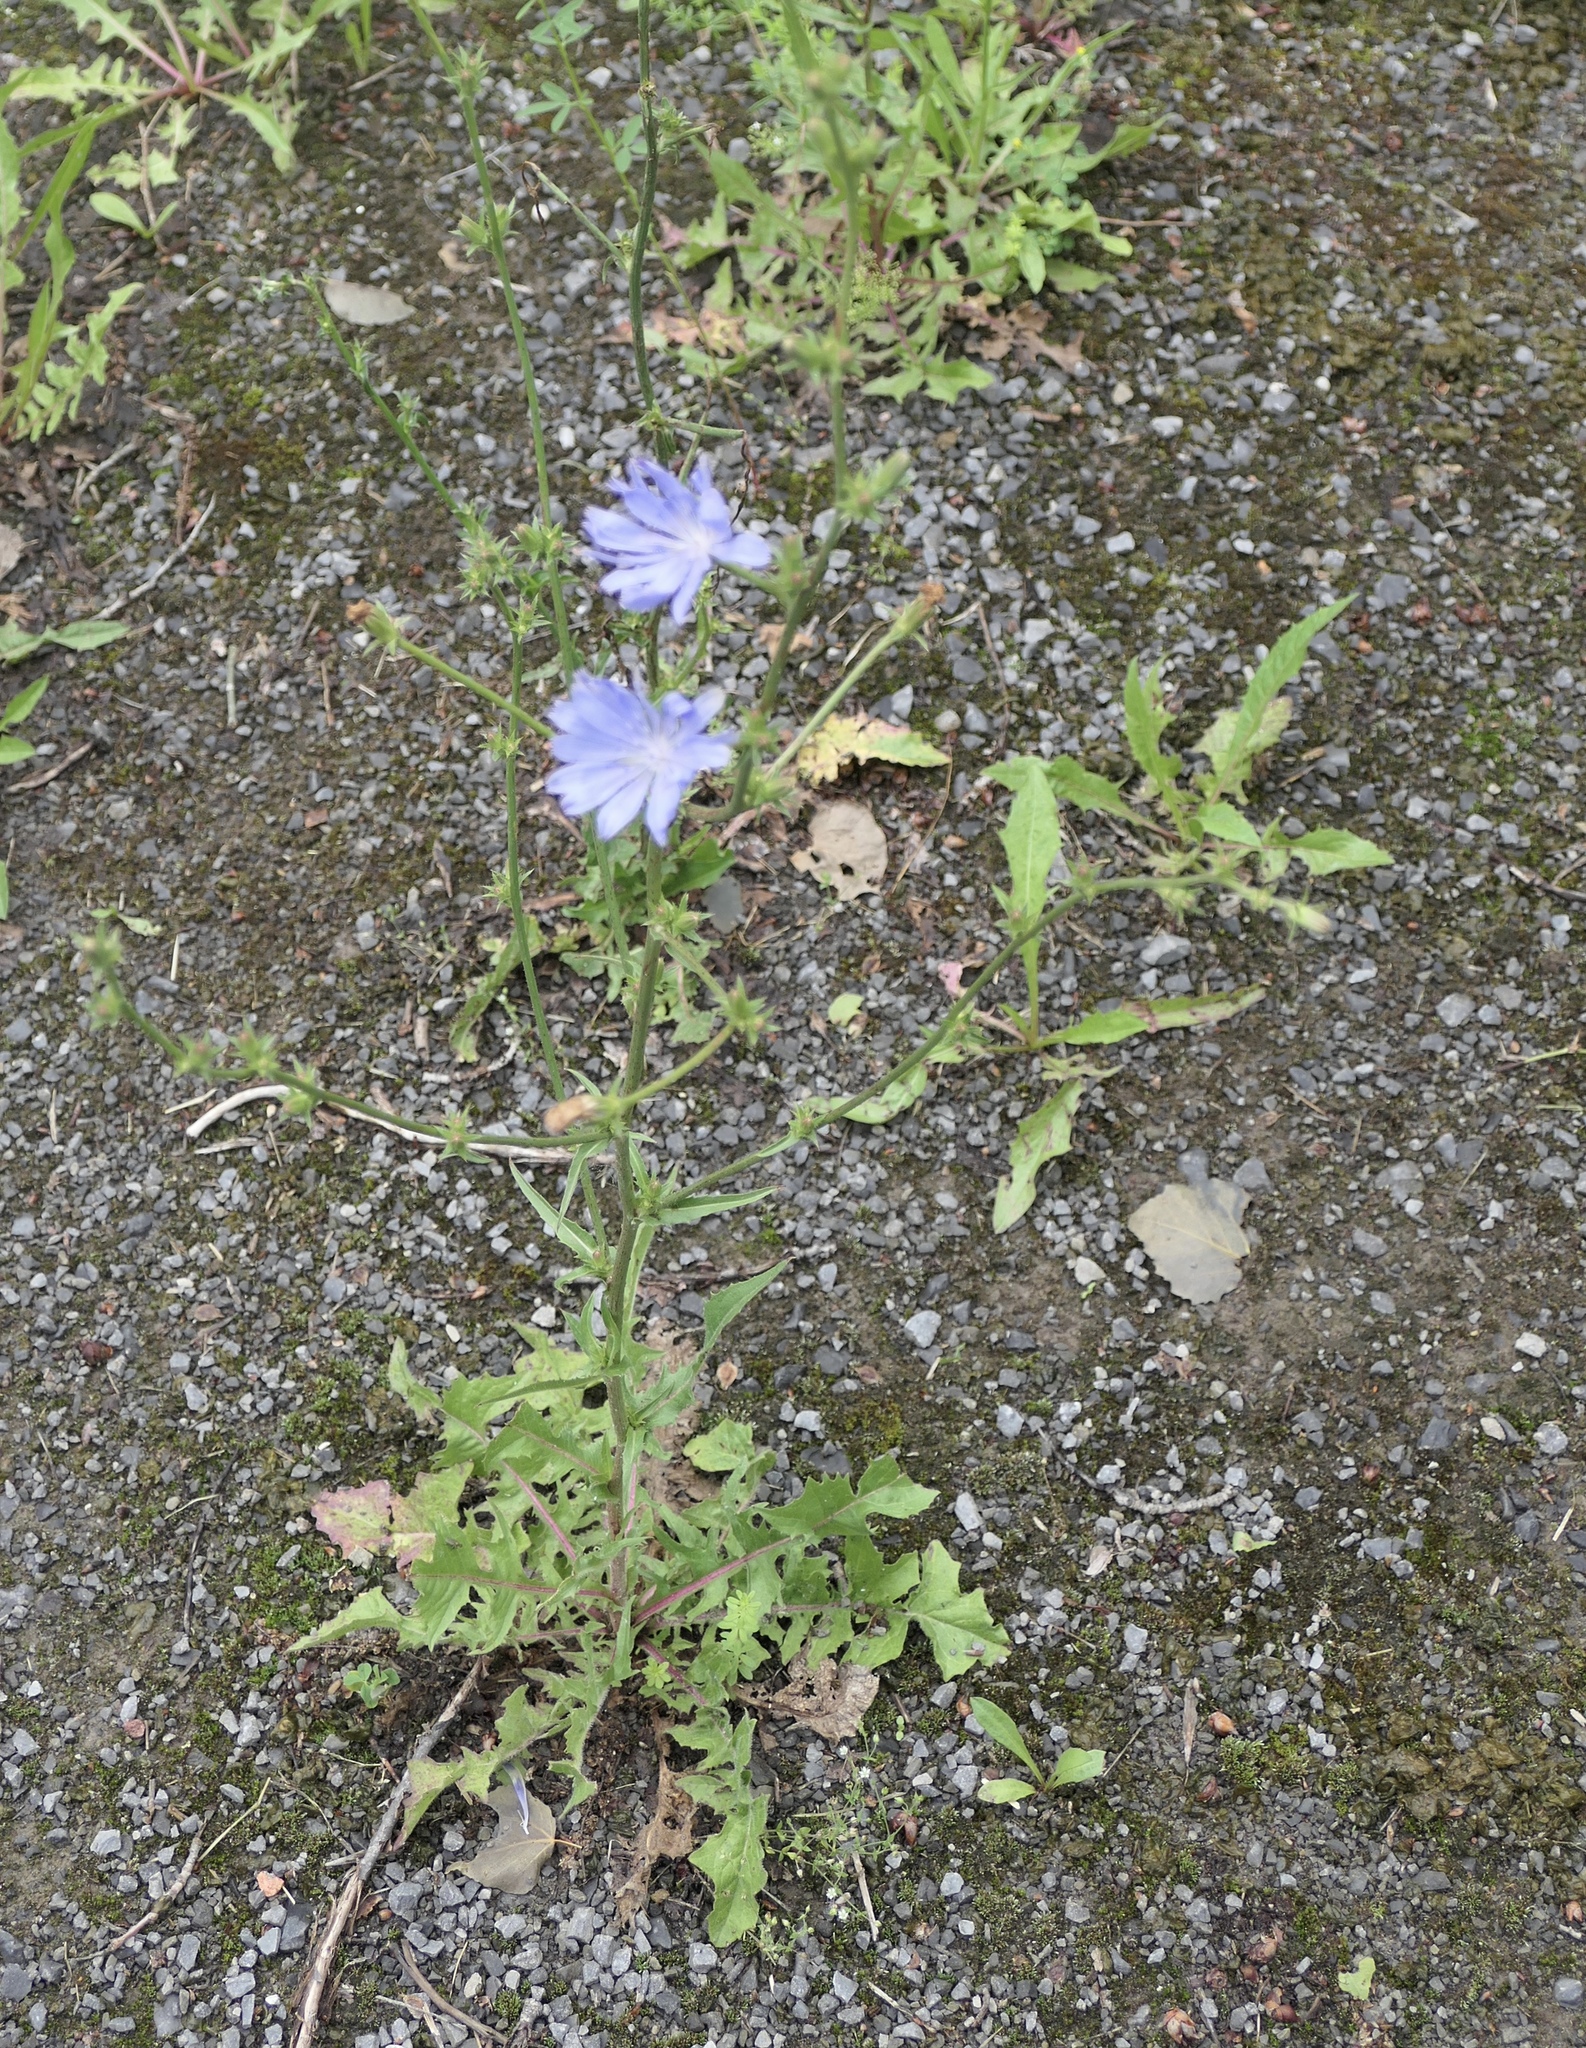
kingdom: Plantae
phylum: Tracheophyta
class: Magnoliopsida
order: Asterales
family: Asteraceae
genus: Cichorium
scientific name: Cichorium intybus
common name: Chicory
